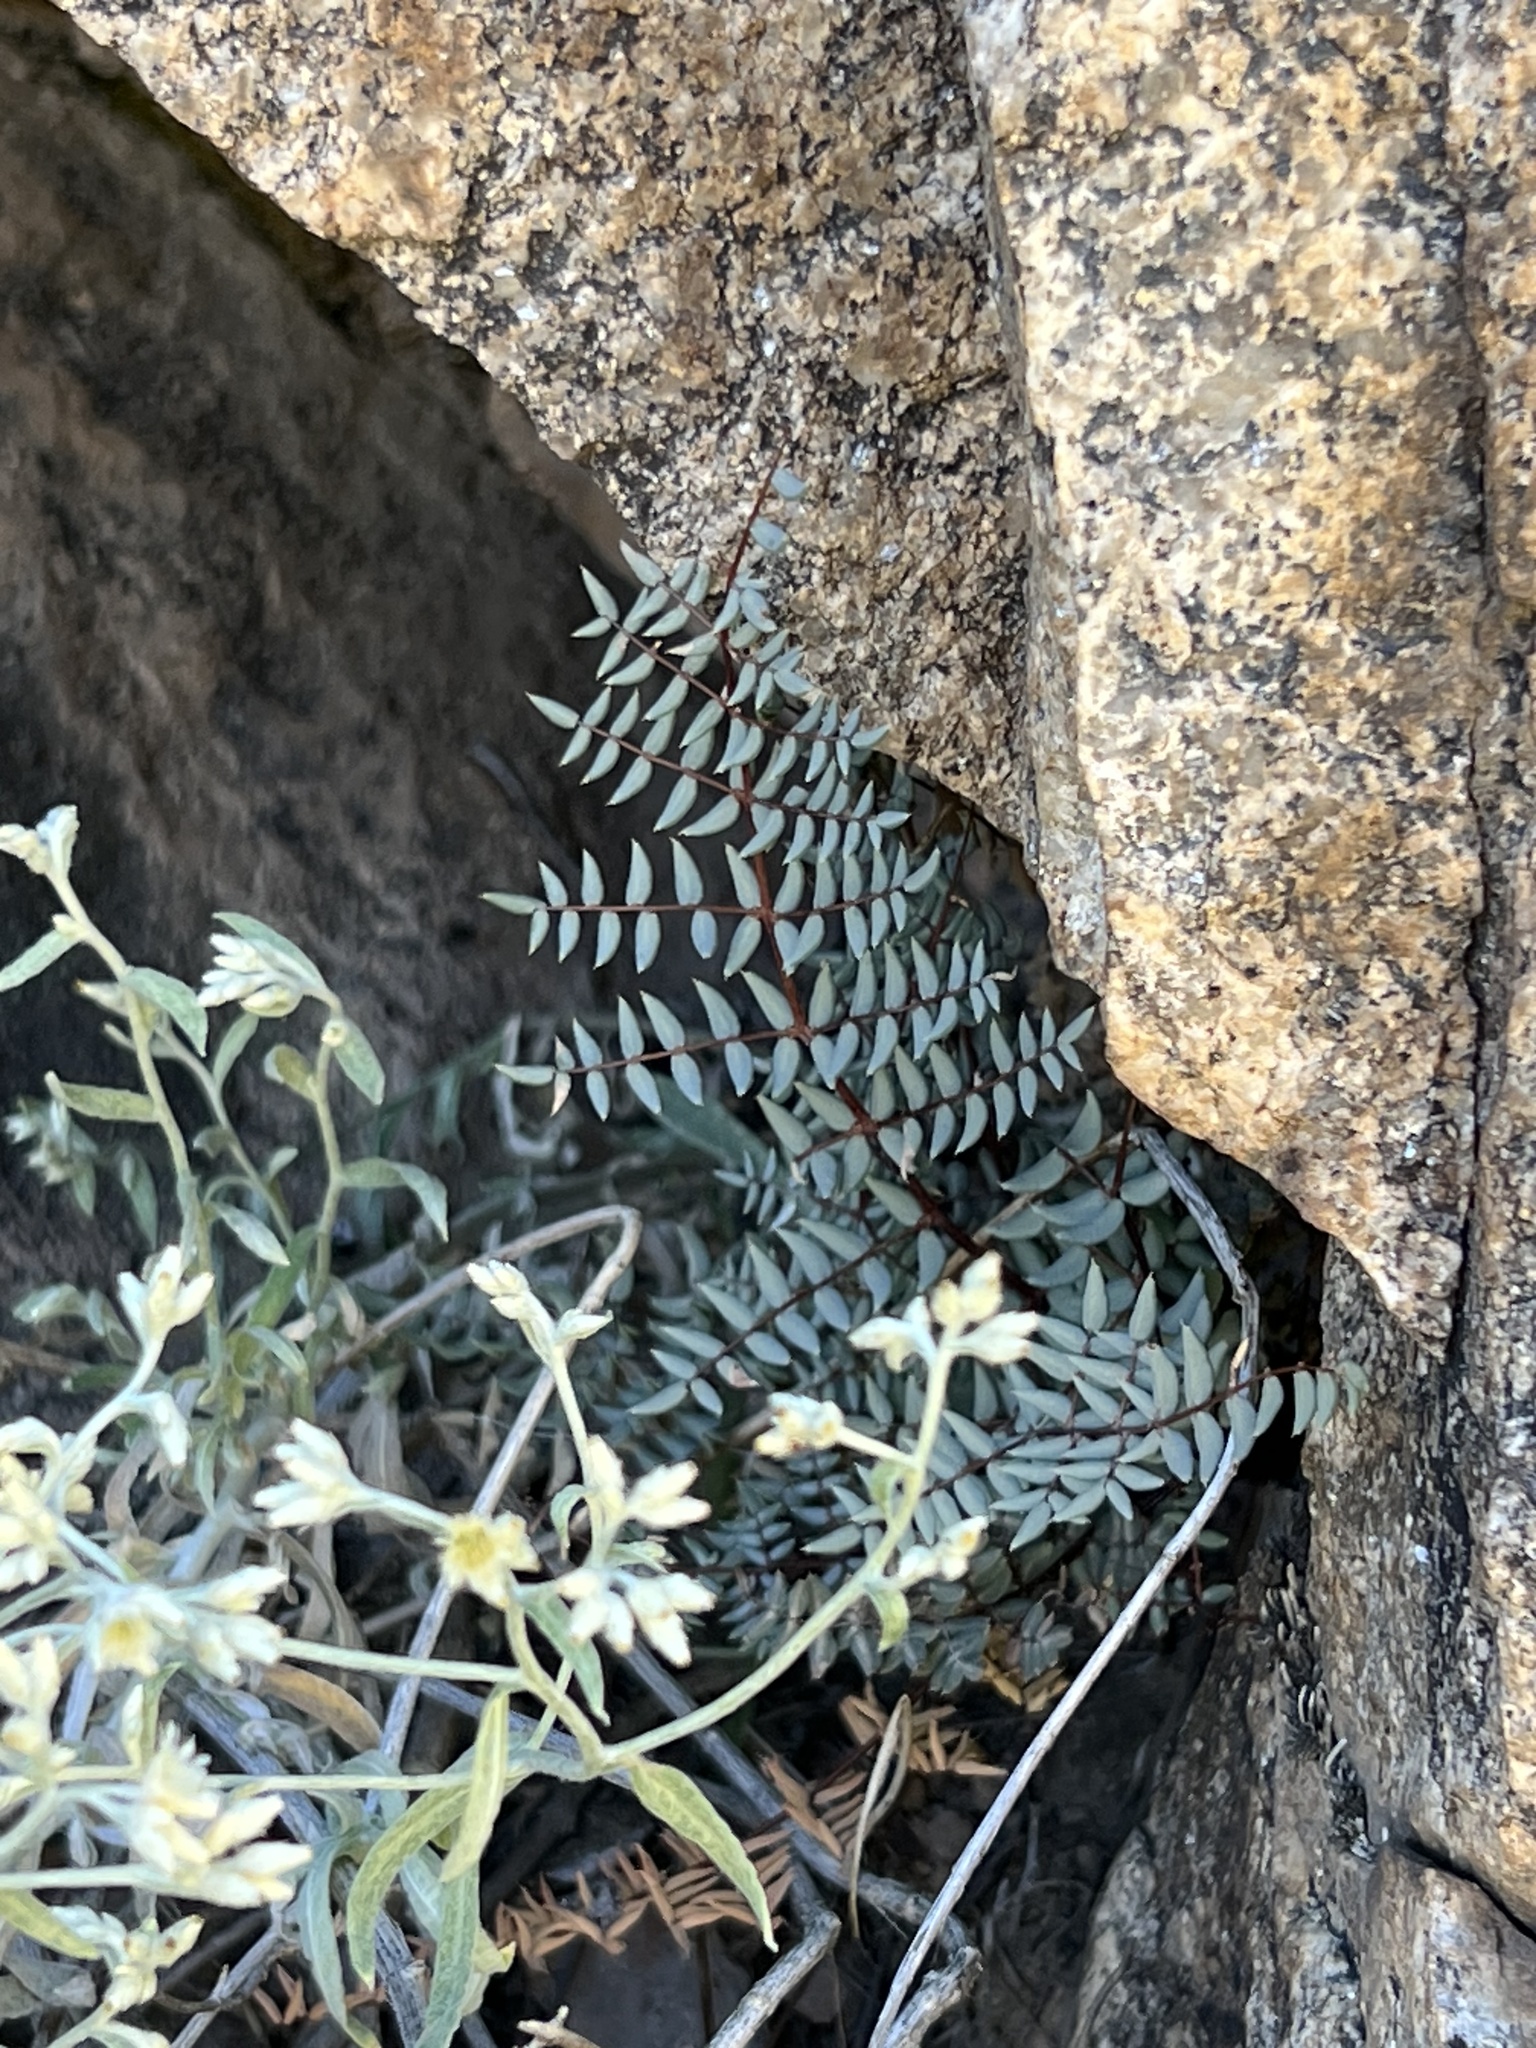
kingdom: Plantae
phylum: Tracheophyta
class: Polypodiopsida
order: Polypodiales
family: Pteridaceae
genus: Pellaea
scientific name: Pellaea truncata
